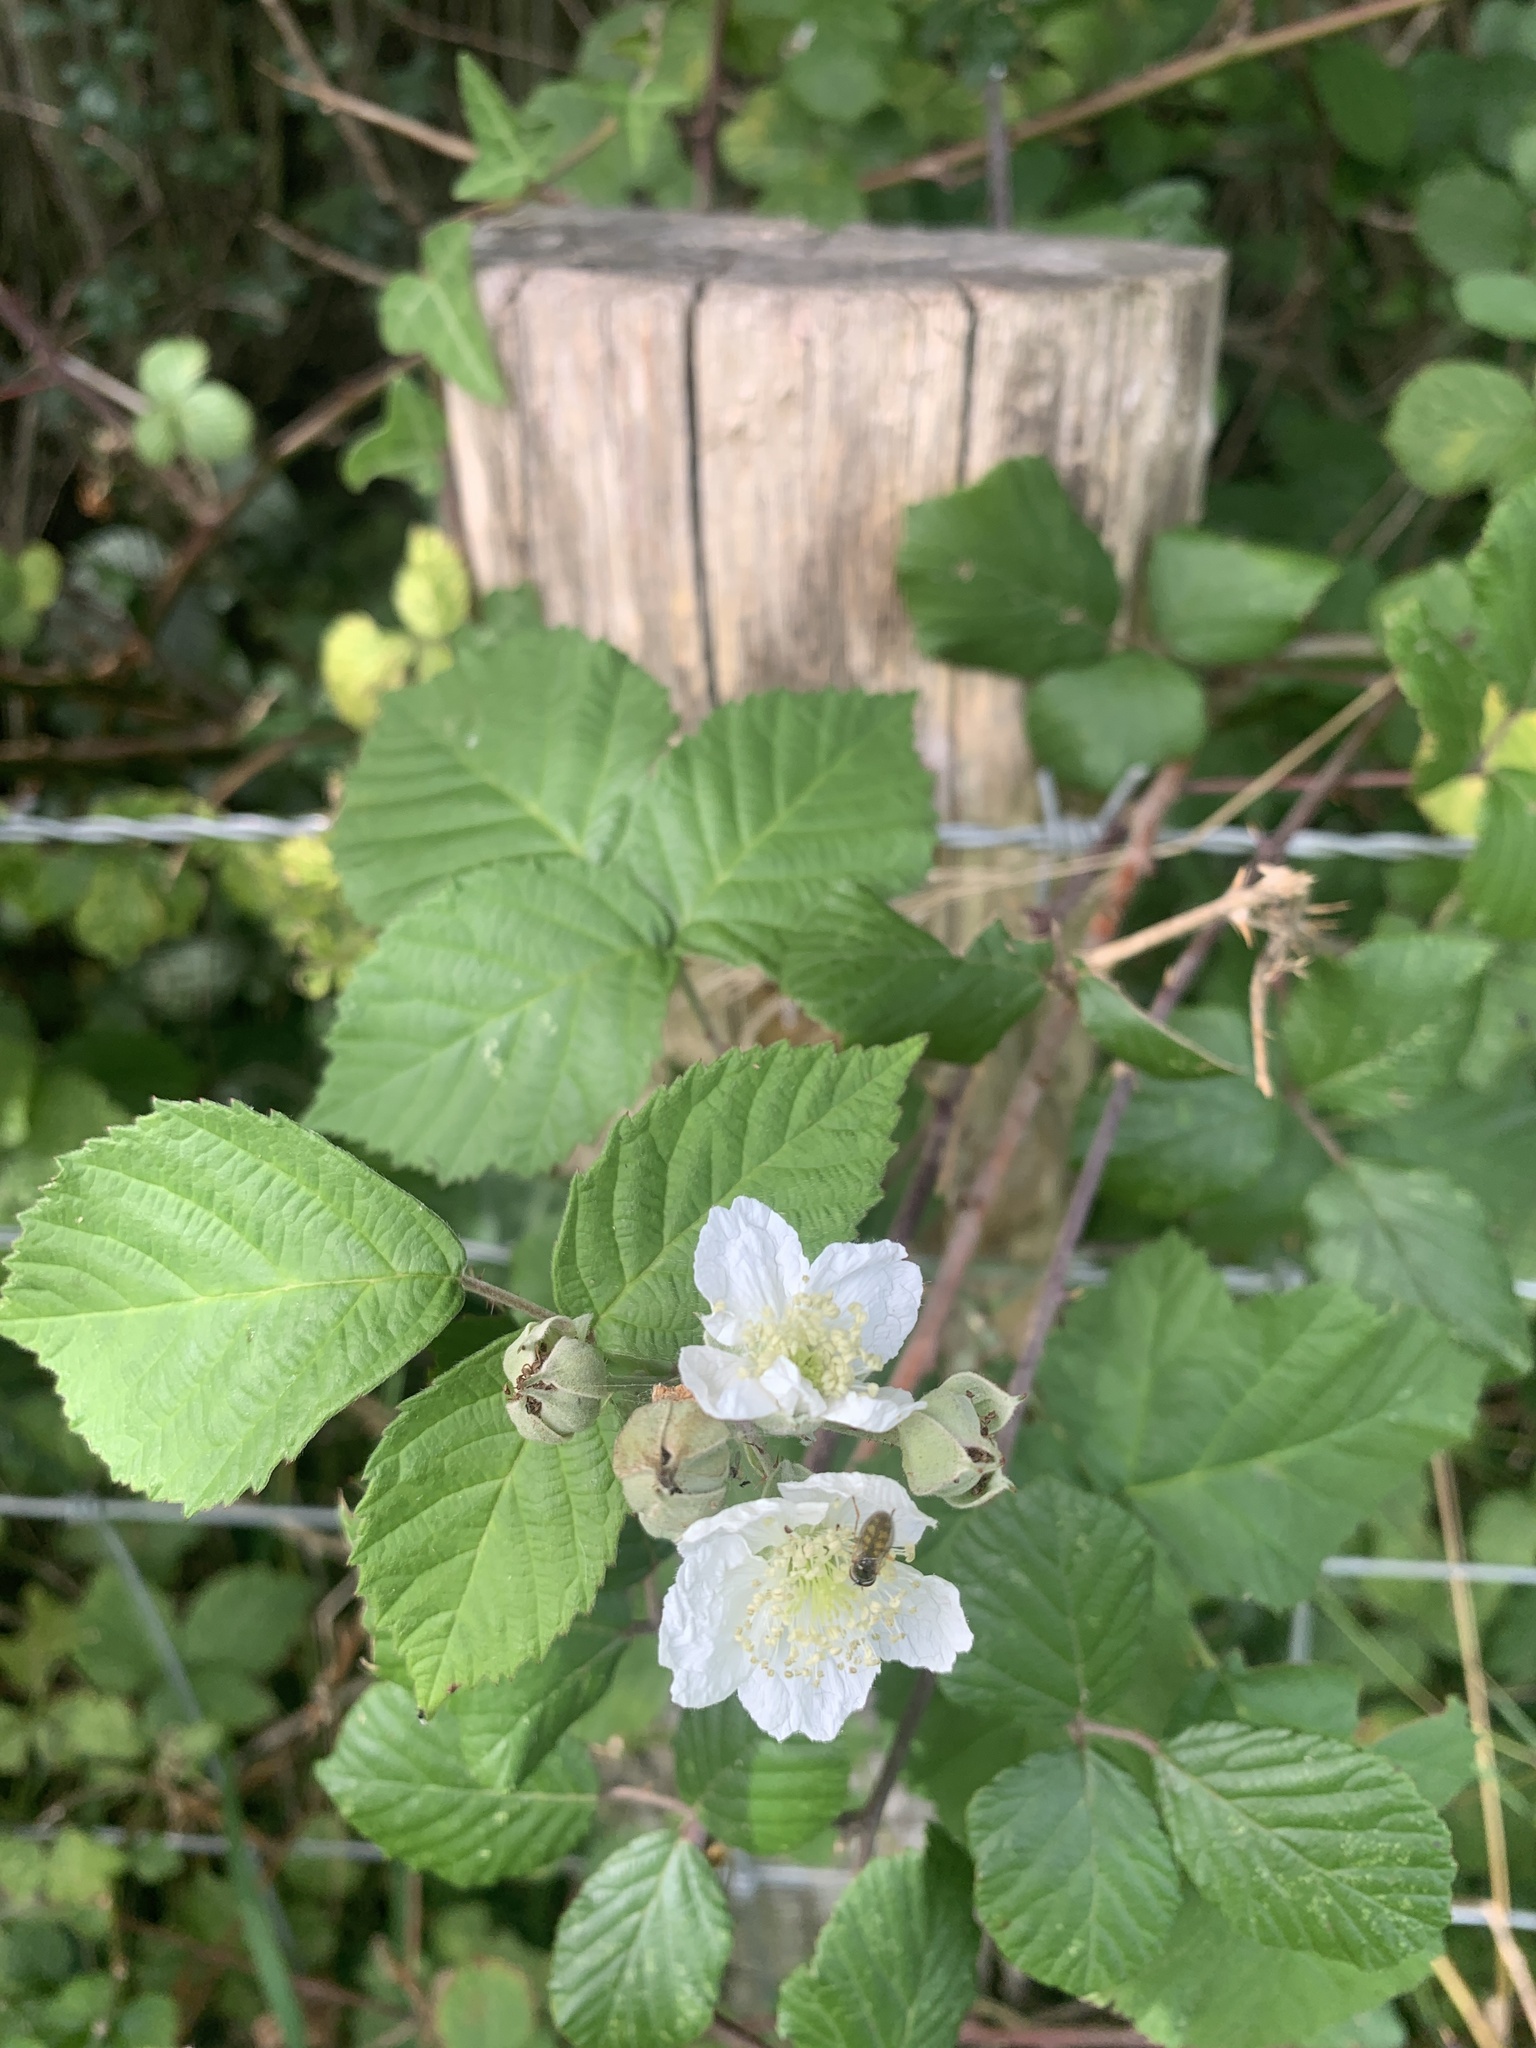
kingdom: Plantae
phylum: Tracheophyta
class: Magnoliopsida
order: Rosales
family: Rosaceae
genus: Rubus
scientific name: Rubus fruticosus
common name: Blackberry, bramble
